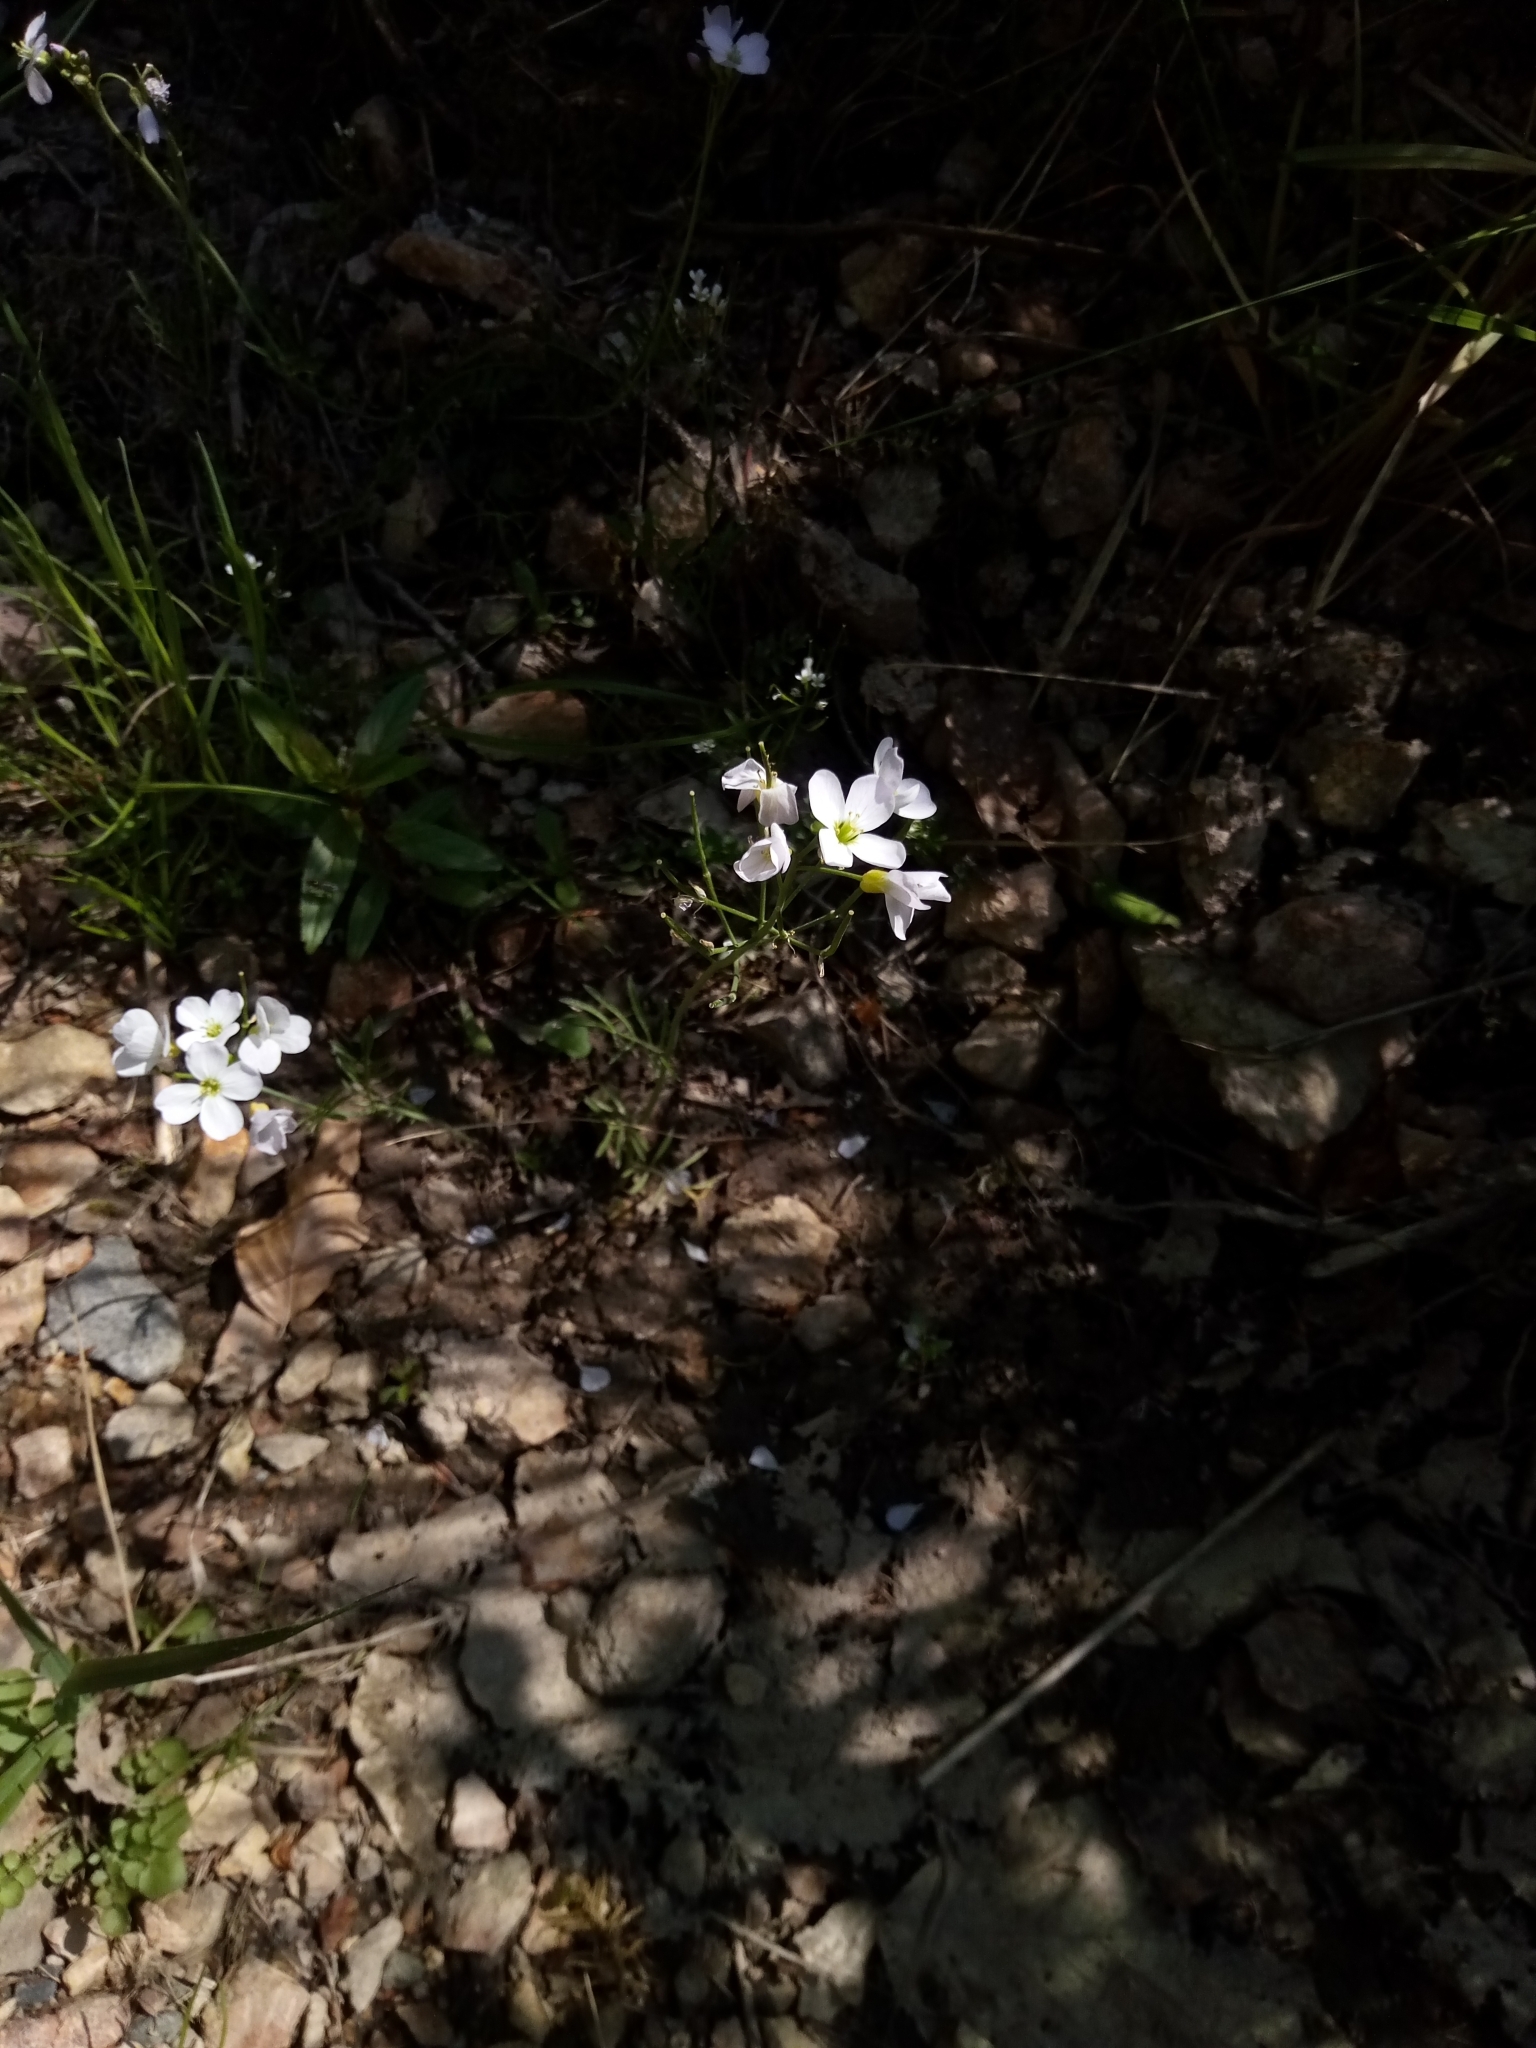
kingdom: Plantae
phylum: Tracheophyta
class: Magnoliopsida
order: Brassicales
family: Brassicaceae
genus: Cardamine
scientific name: Cardamine pratensis
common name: Cuckoo flower
